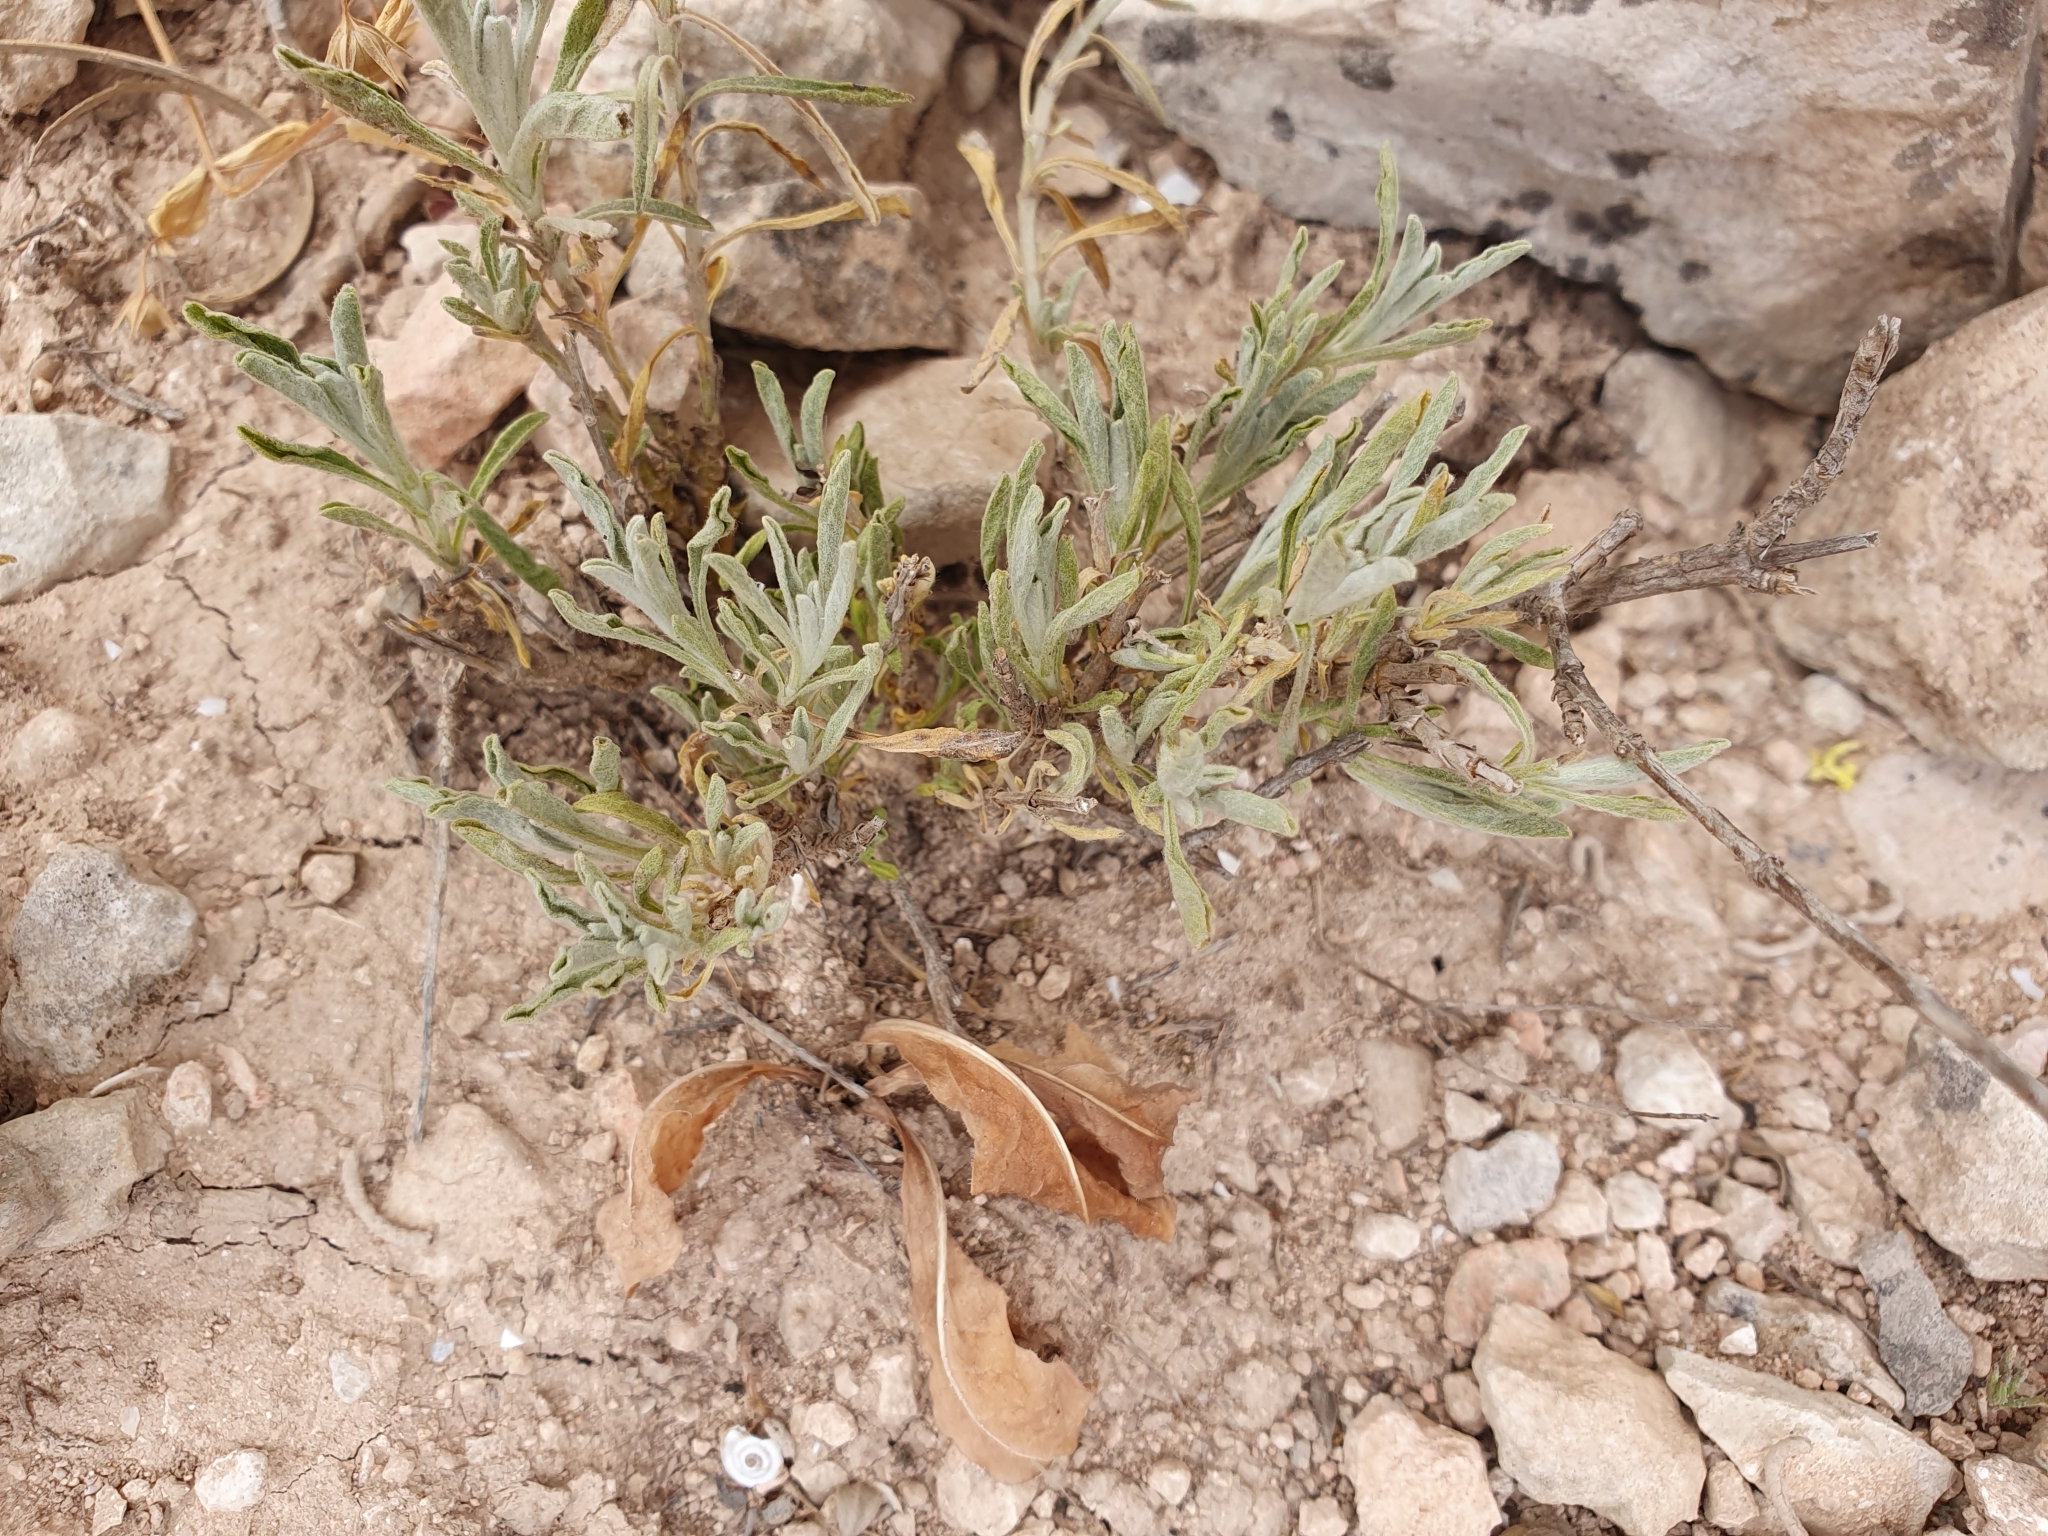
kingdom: Plantae
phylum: Tracheophyta
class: Magnoliopsida
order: Lamiales
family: Lamiaceae
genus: Sideritis
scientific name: Sideritis incana
